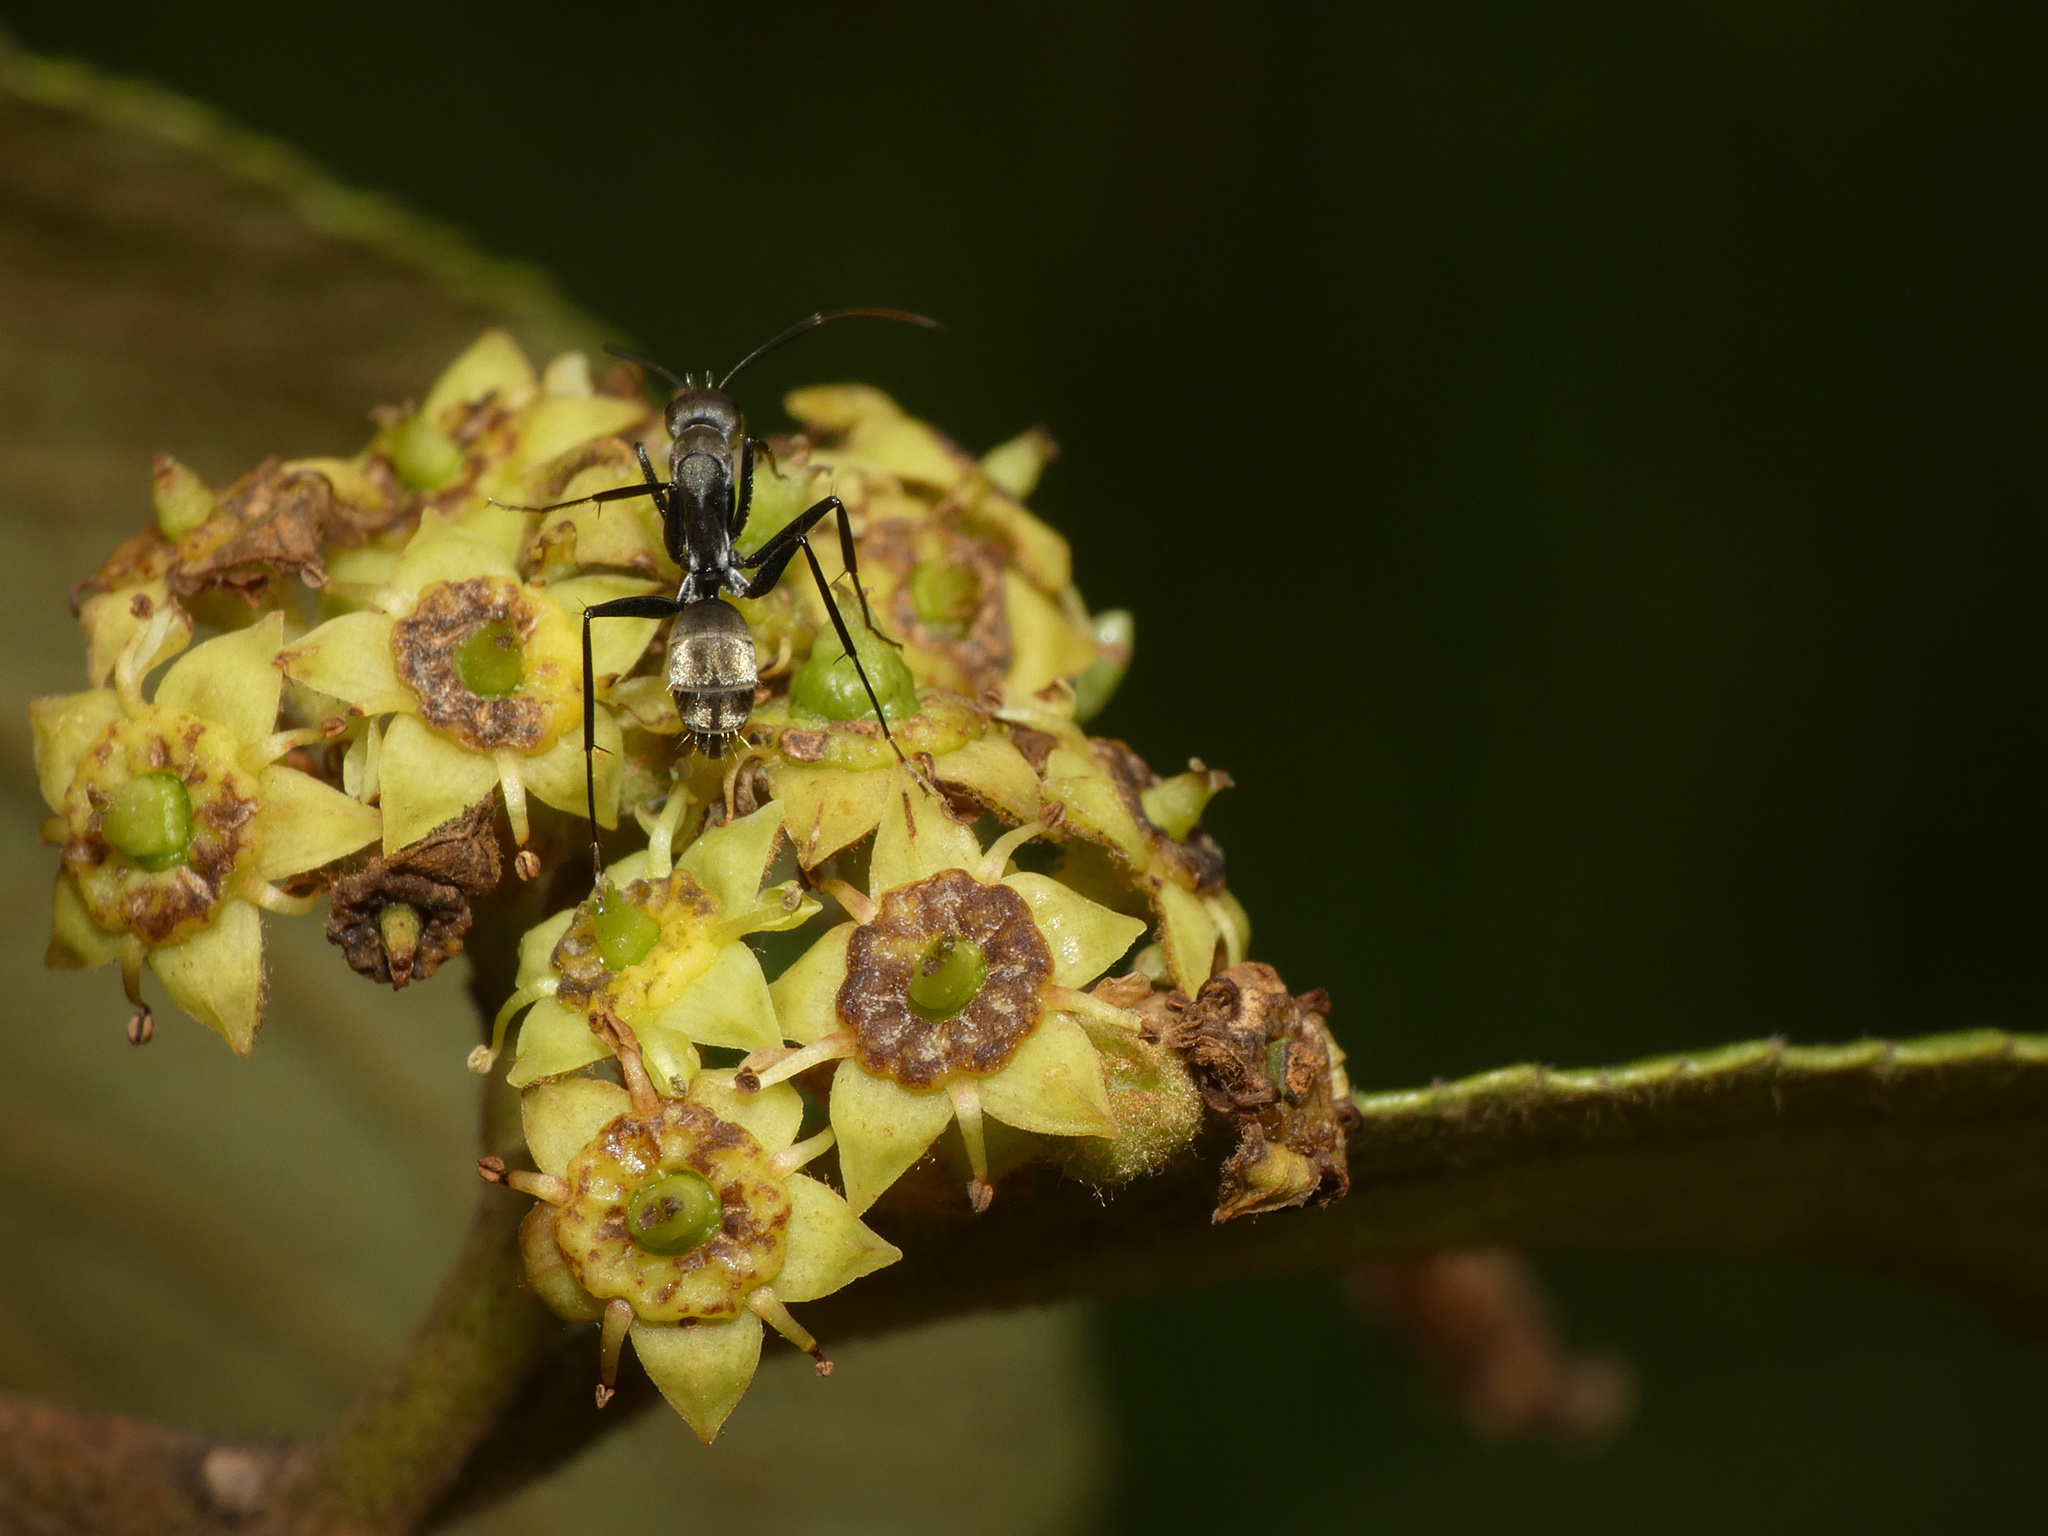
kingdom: Animalia
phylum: Arthropoda
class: Insecta
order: Hymenoptera
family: Formicidae
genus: Camponotus
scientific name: Camponotus cinctellus
